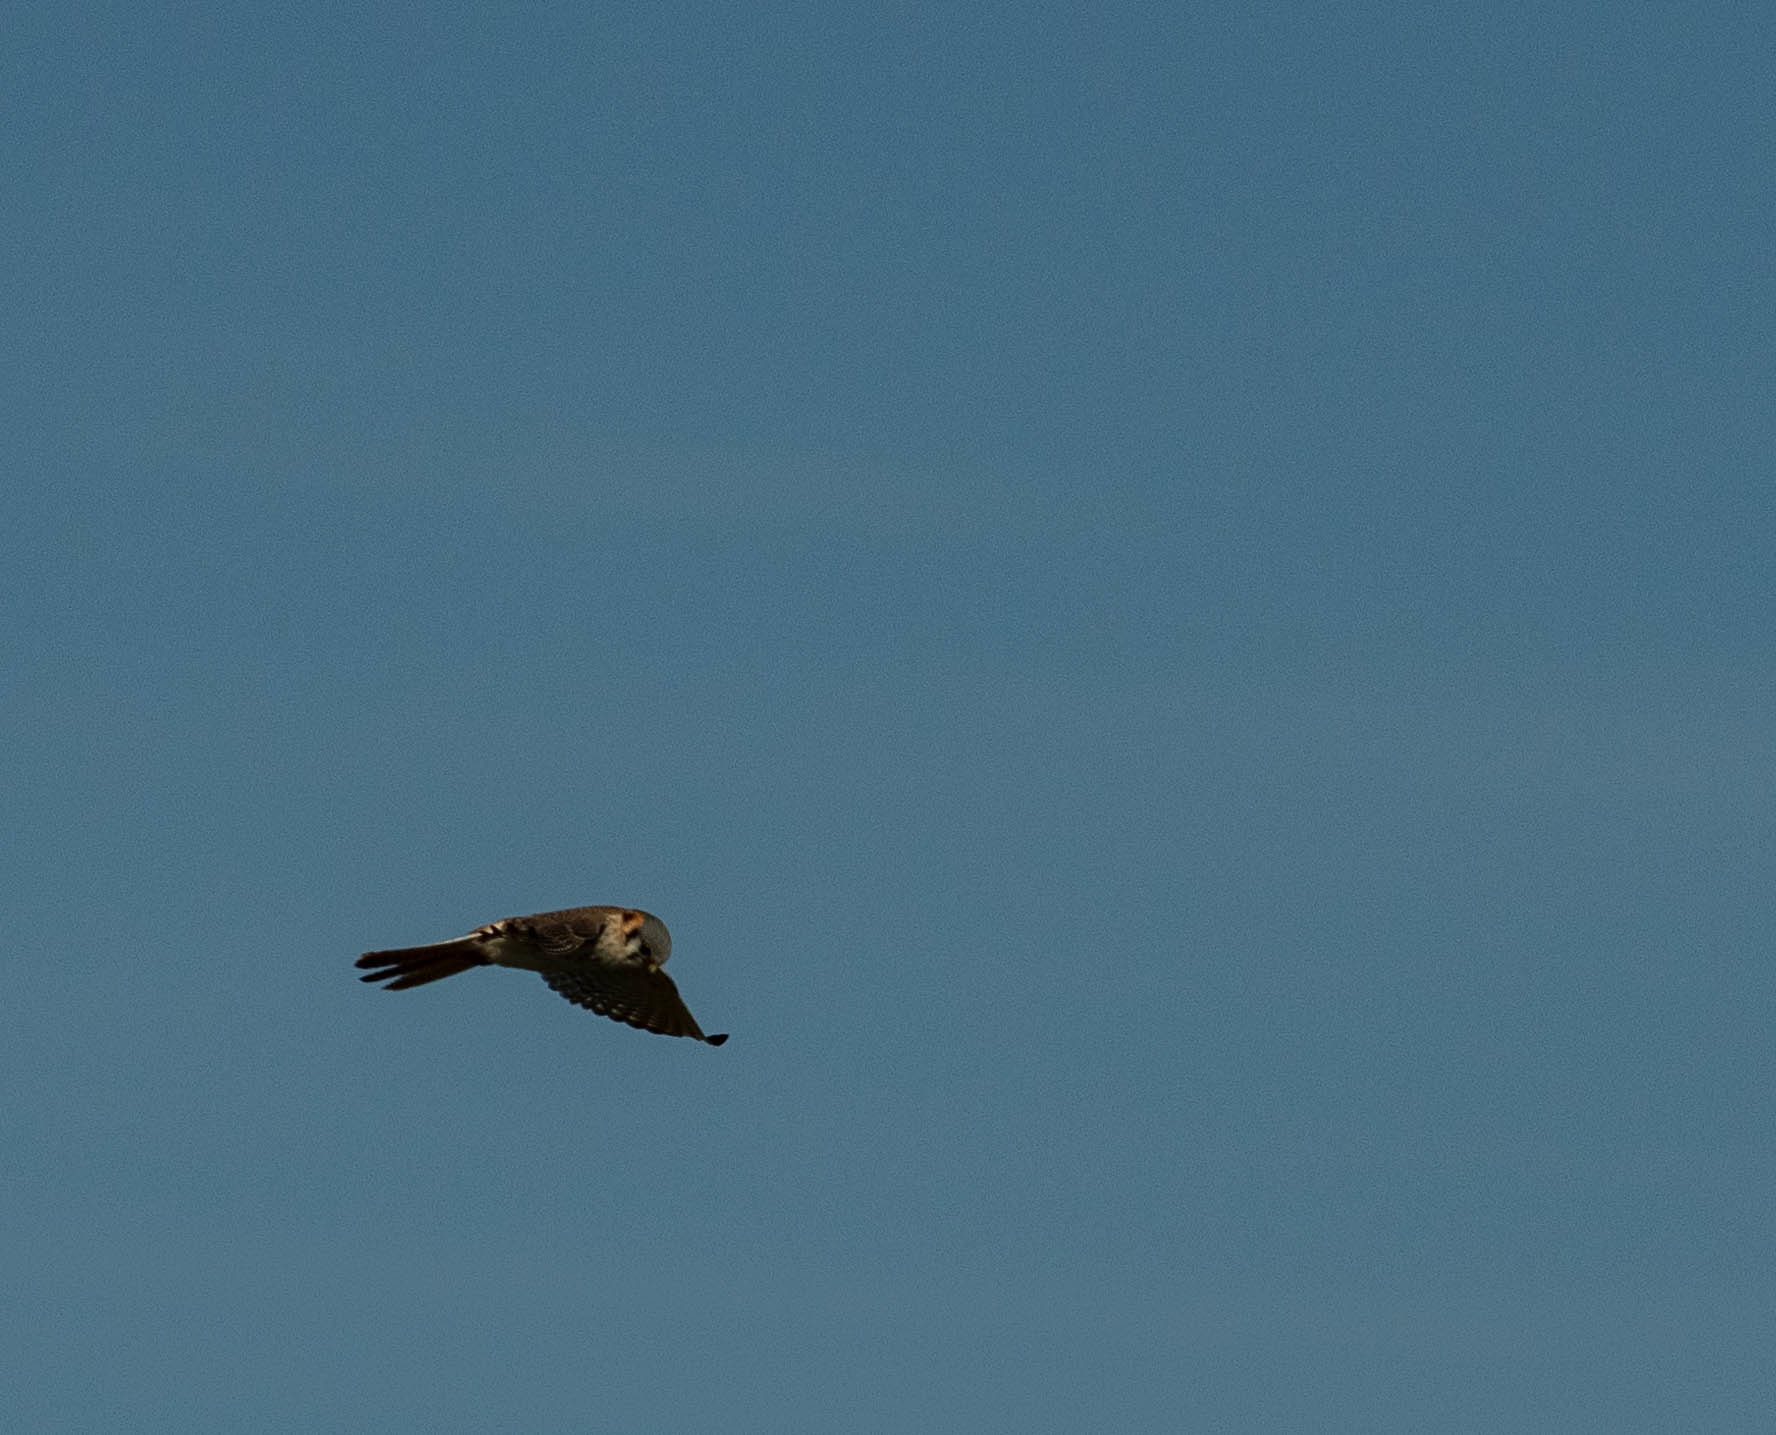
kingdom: Animalia
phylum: Chordata
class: Aves
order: Falconiformes
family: Falconidae
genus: Falco
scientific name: Falco sparverius
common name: American kestrel
